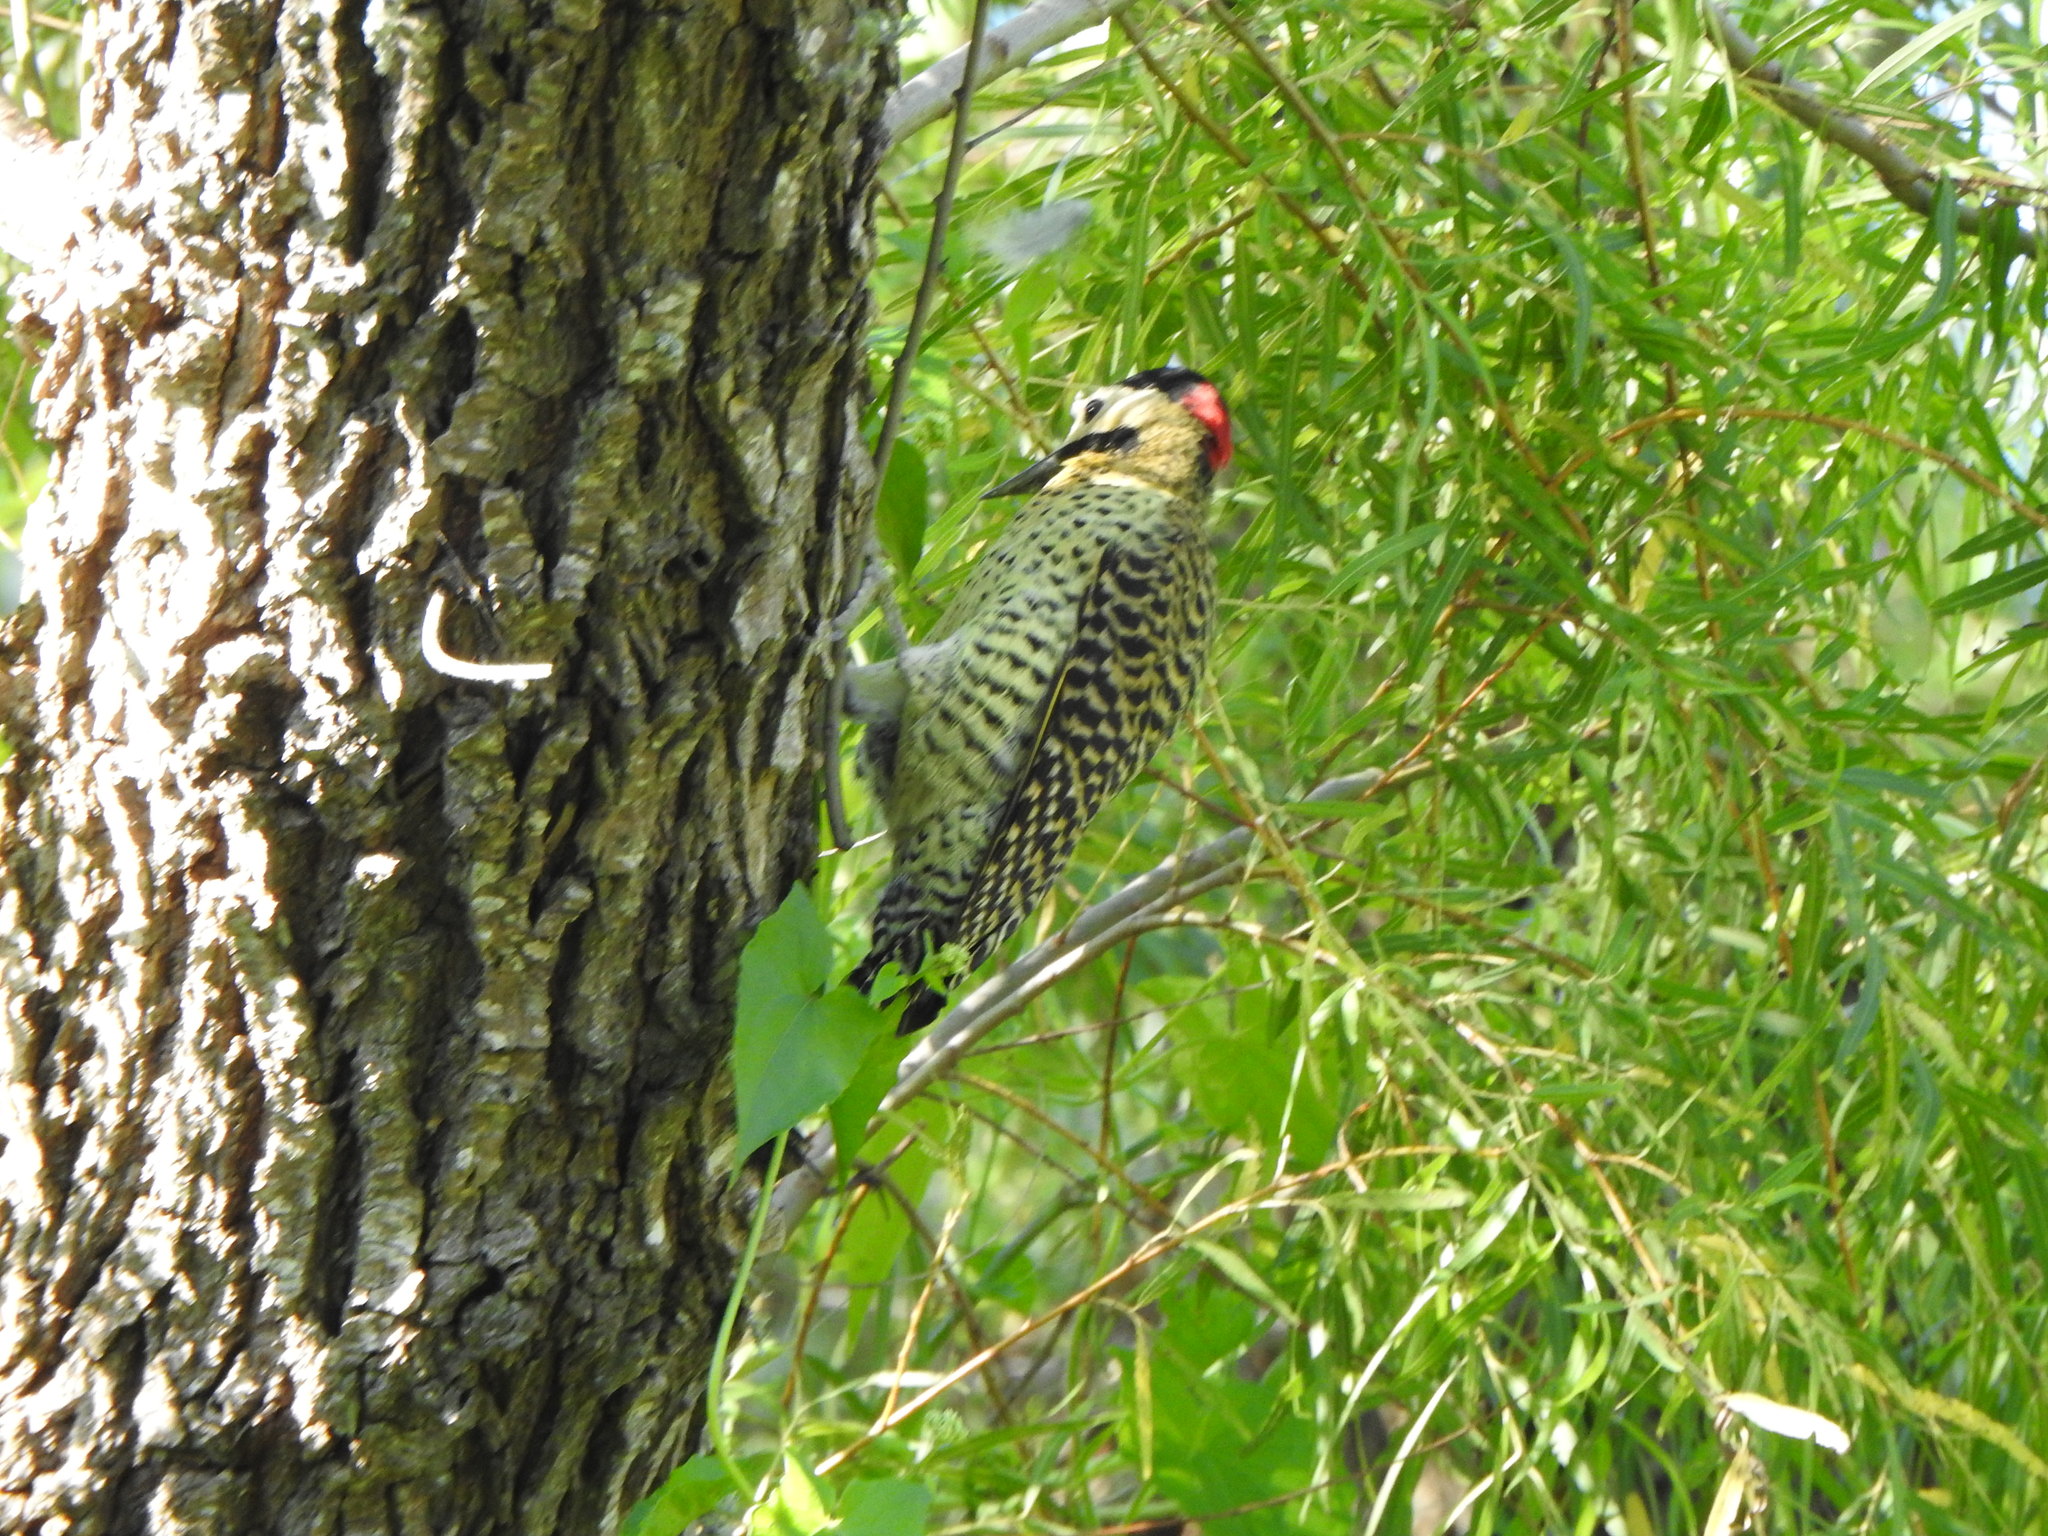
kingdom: Animalia
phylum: Chordata
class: Aves
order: Piciformes
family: Picidae
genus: Colaptes
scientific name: Colaptes melanochloros
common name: Green-barred woodpecker
